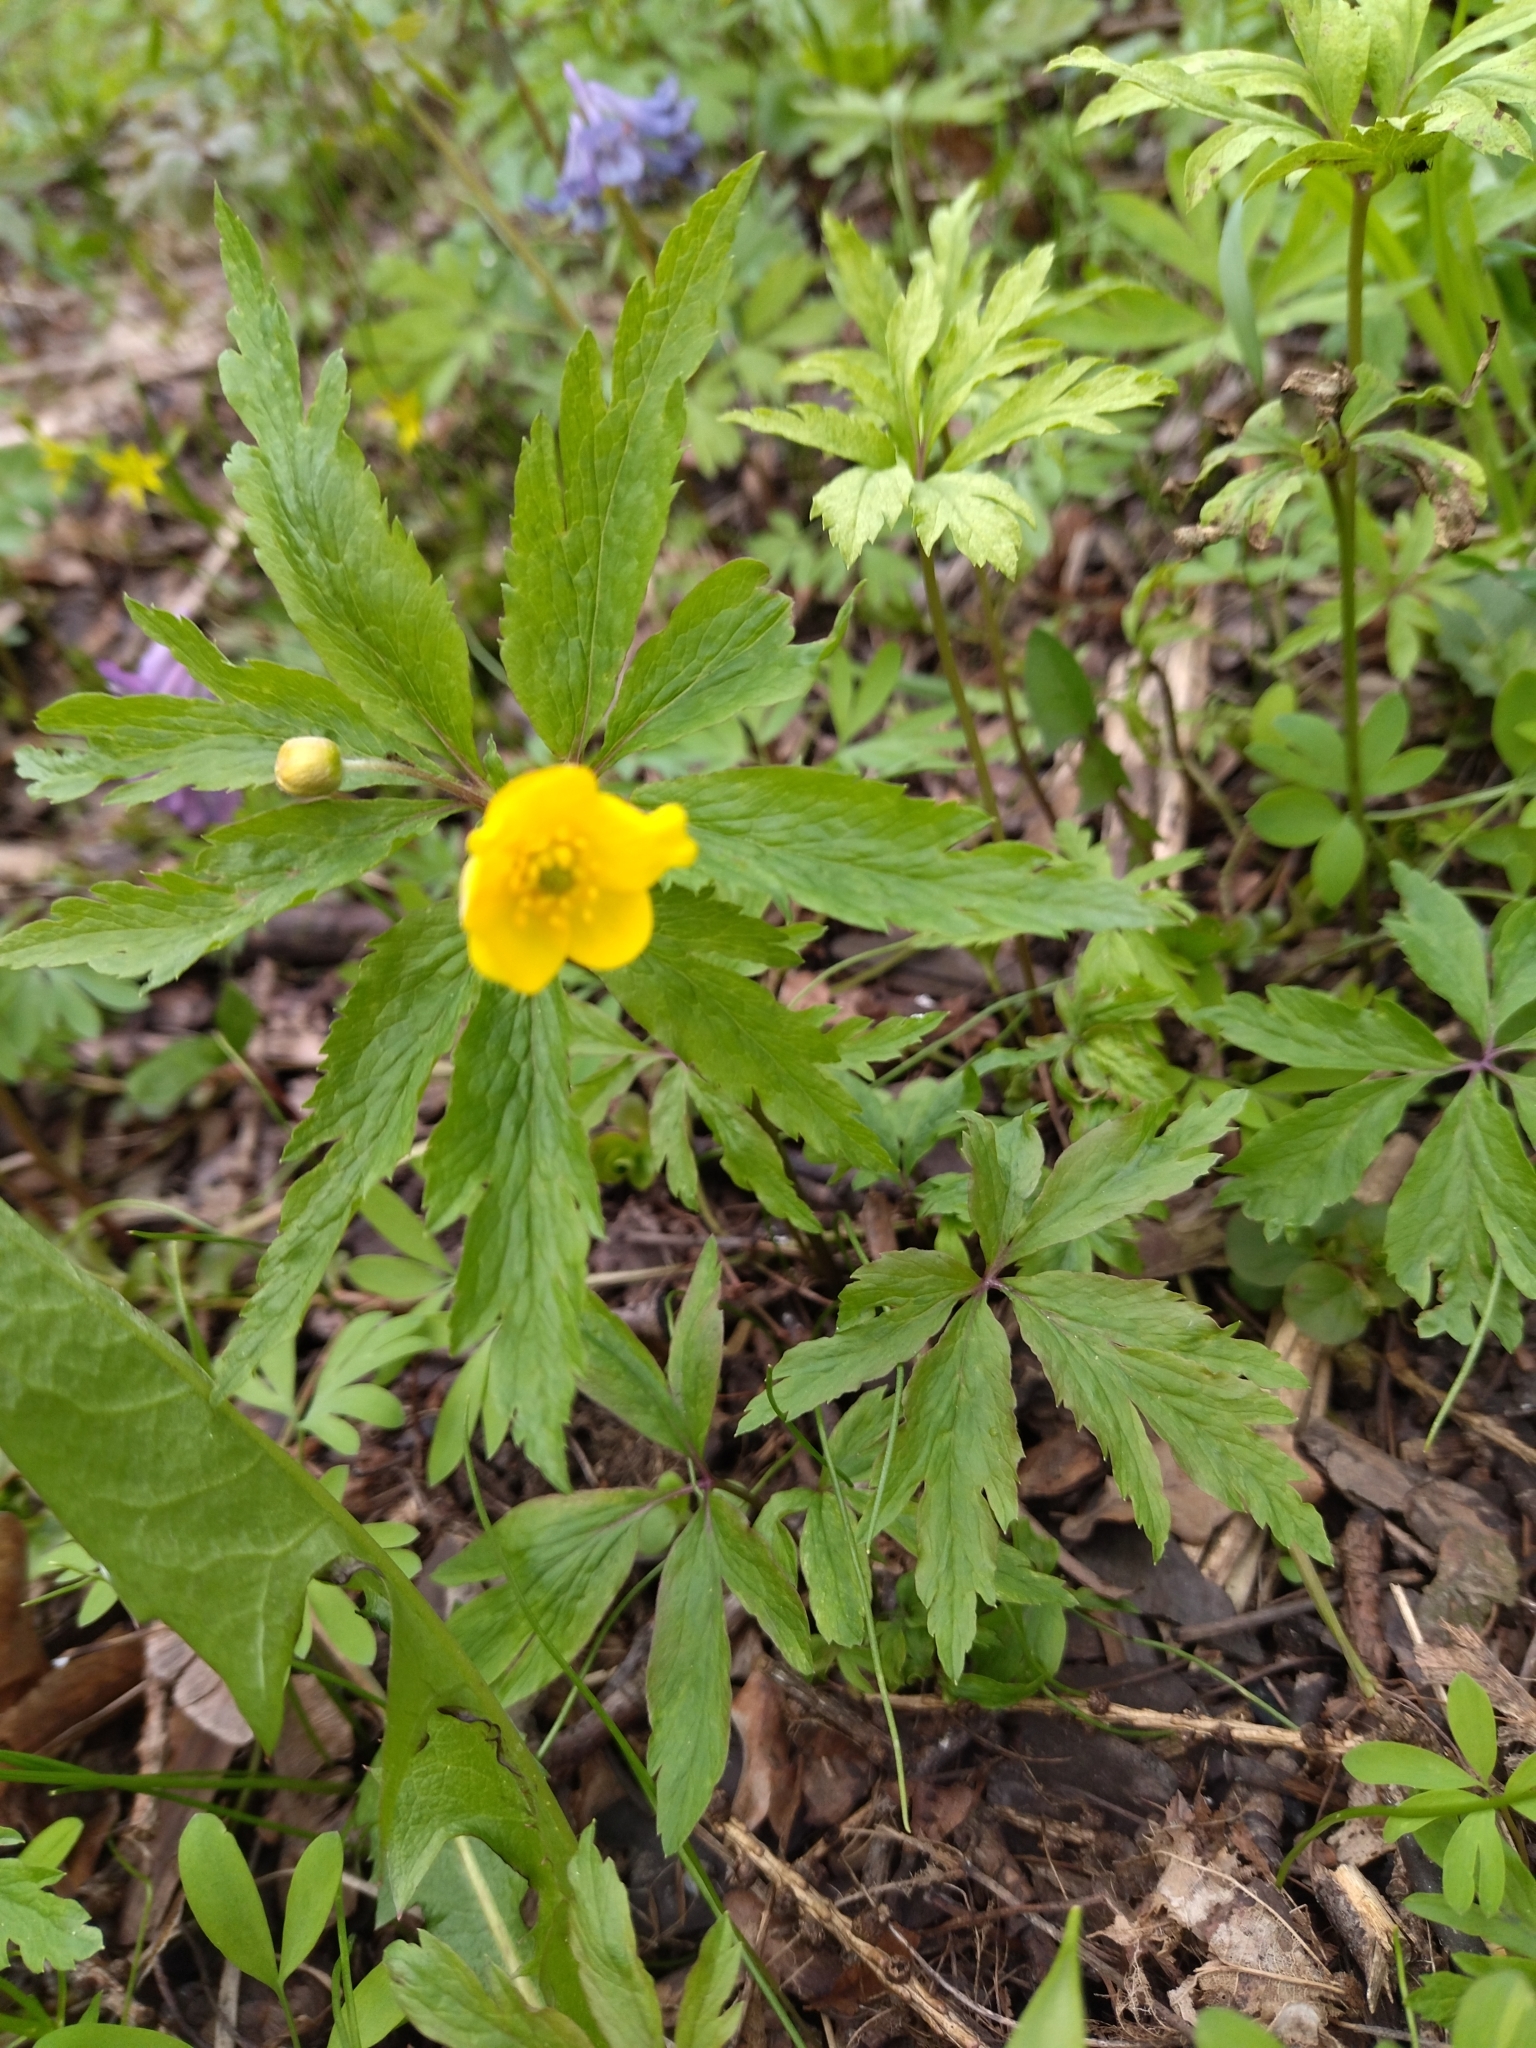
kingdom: Plantae
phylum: Tracheophyta
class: Magnoliopsida
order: Ranunculales
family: Ranunculaceae
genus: Anemone
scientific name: Anemone ranunculoides
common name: Yellow anemone
